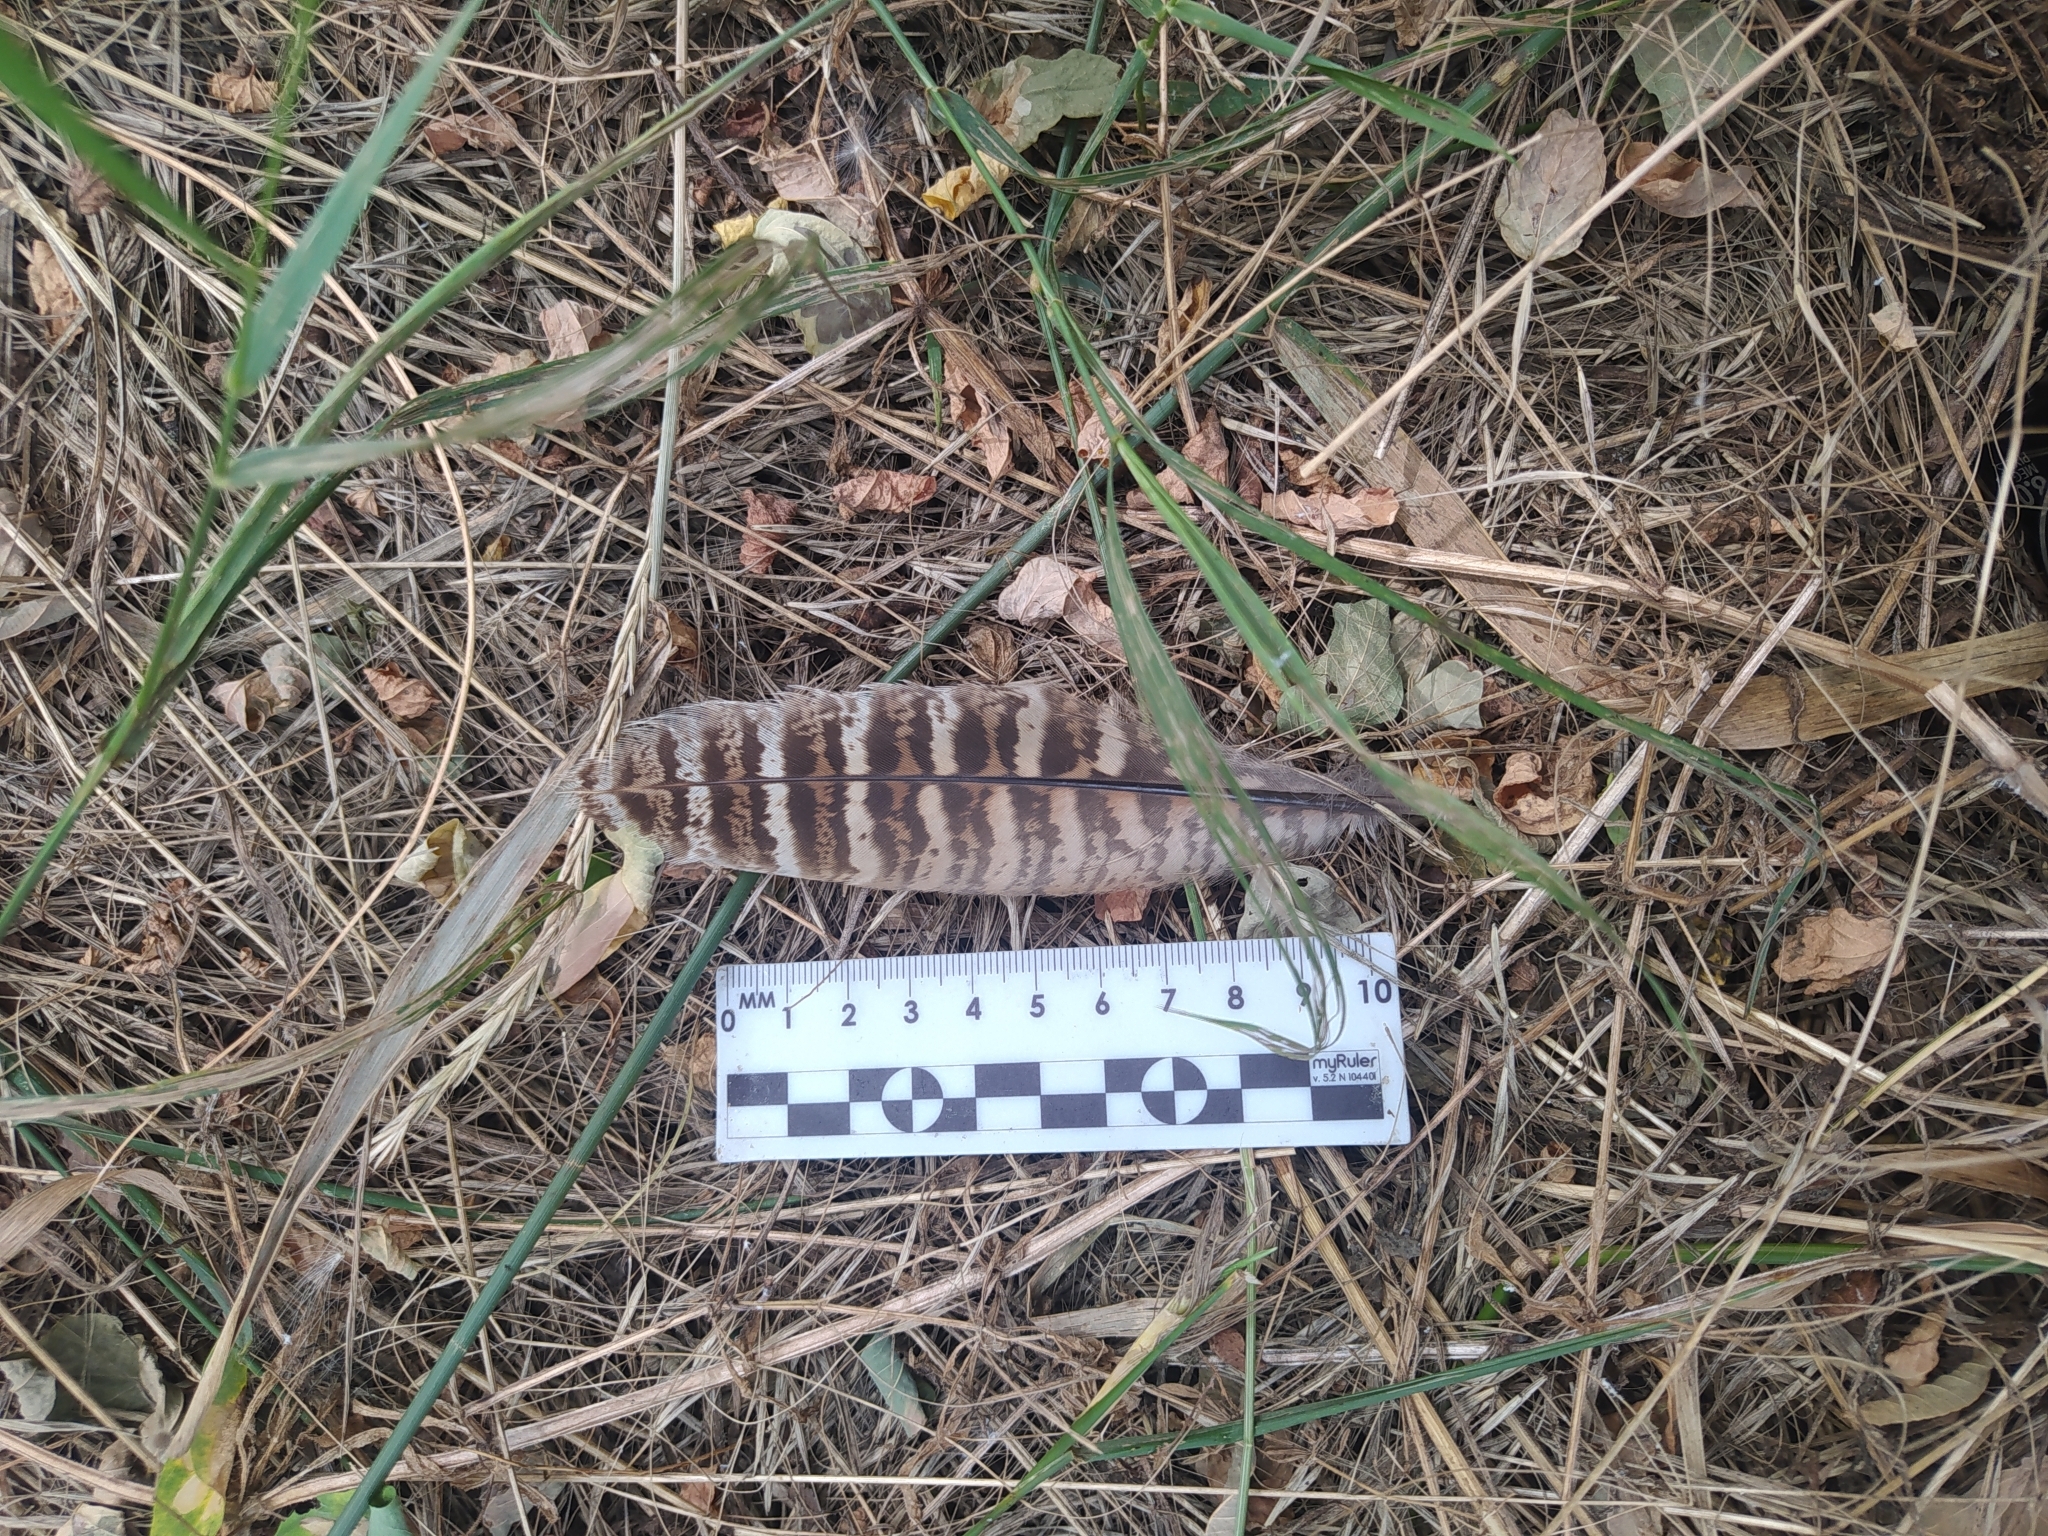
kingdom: Animalia
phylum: Chordata
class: Aves
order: Galliformes
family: Phasianidae
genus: Phasianus
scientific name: Phasianus colchicus
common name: Common pheasant
